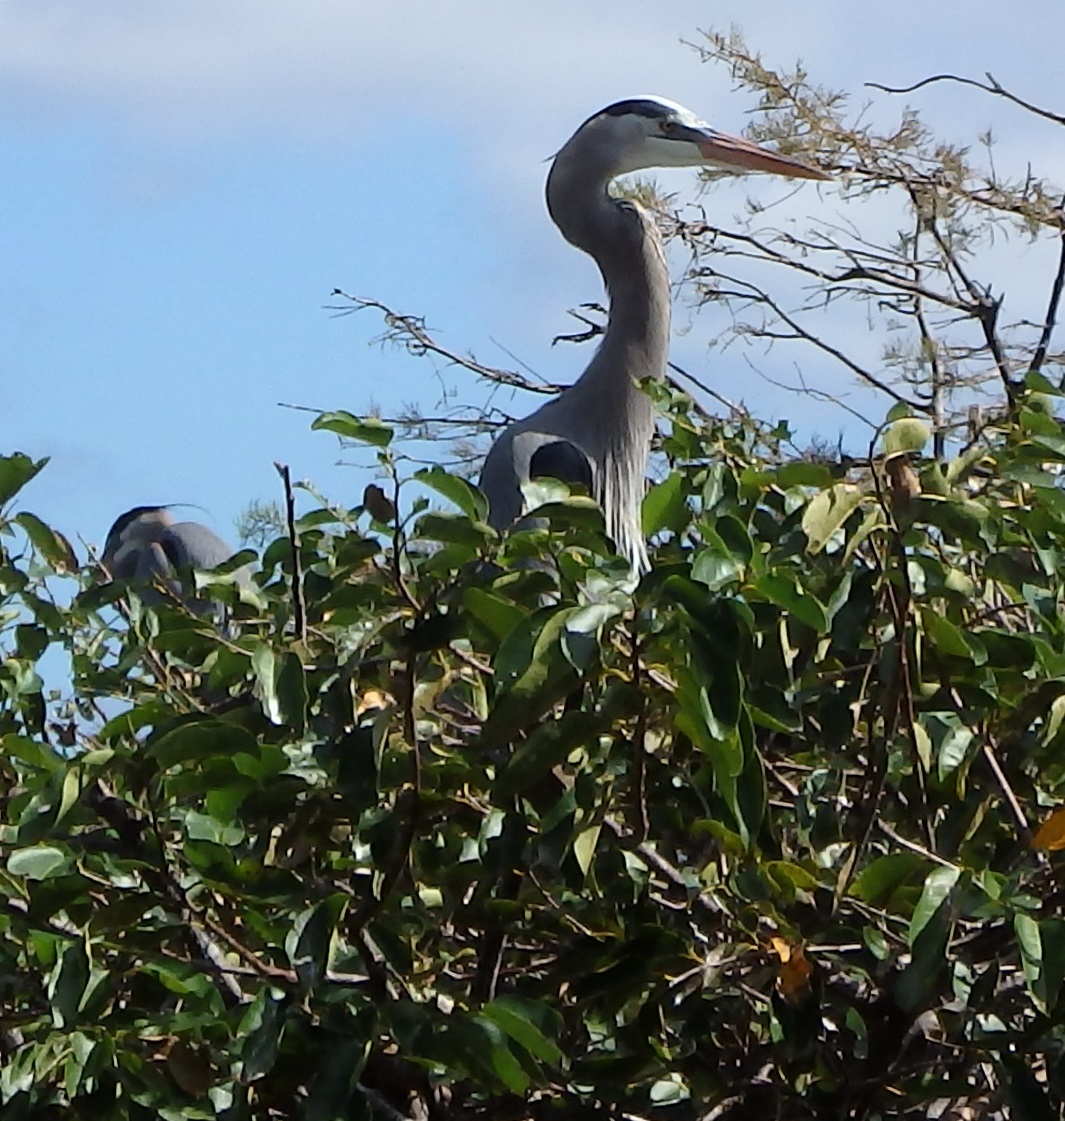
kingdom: Animalia
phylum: Chordata
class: Aves
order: Pelecaniformes
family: Ardeidae
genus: Ardea
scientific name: Ardea herodias
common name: Great blue heron
